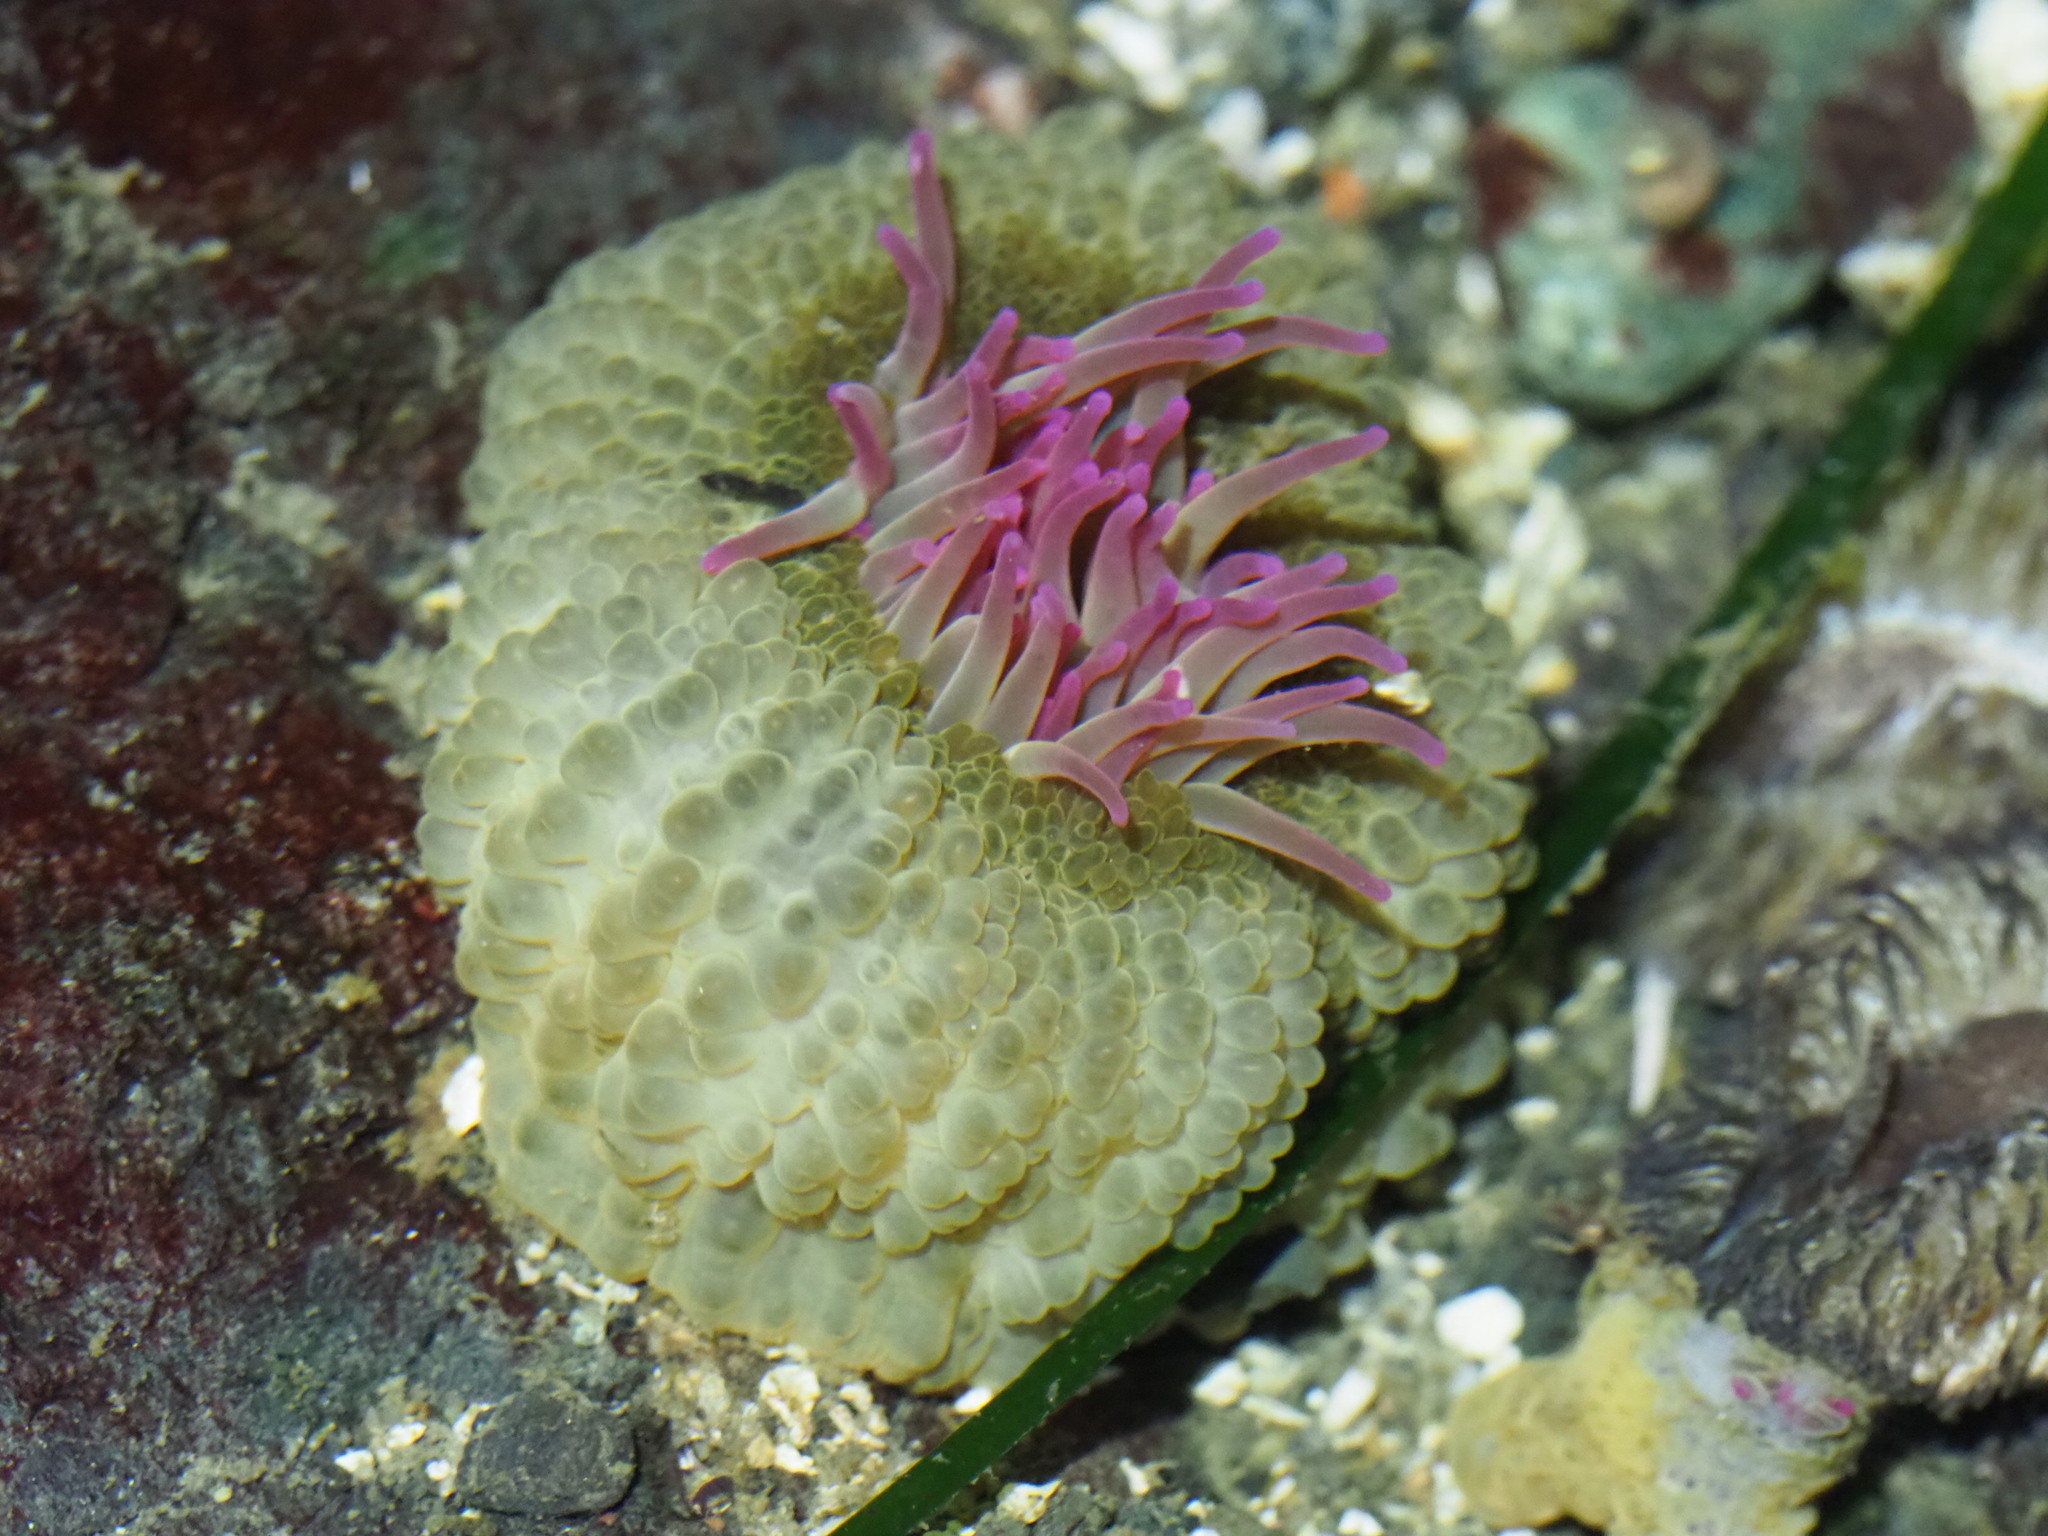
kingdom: Animalia
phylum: Cnidaria
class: Anthozoa
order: Actiniaria
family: Actiniidae
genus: Anthopleura
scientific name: Anthopleura elegantissima
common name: Clonal anemone
